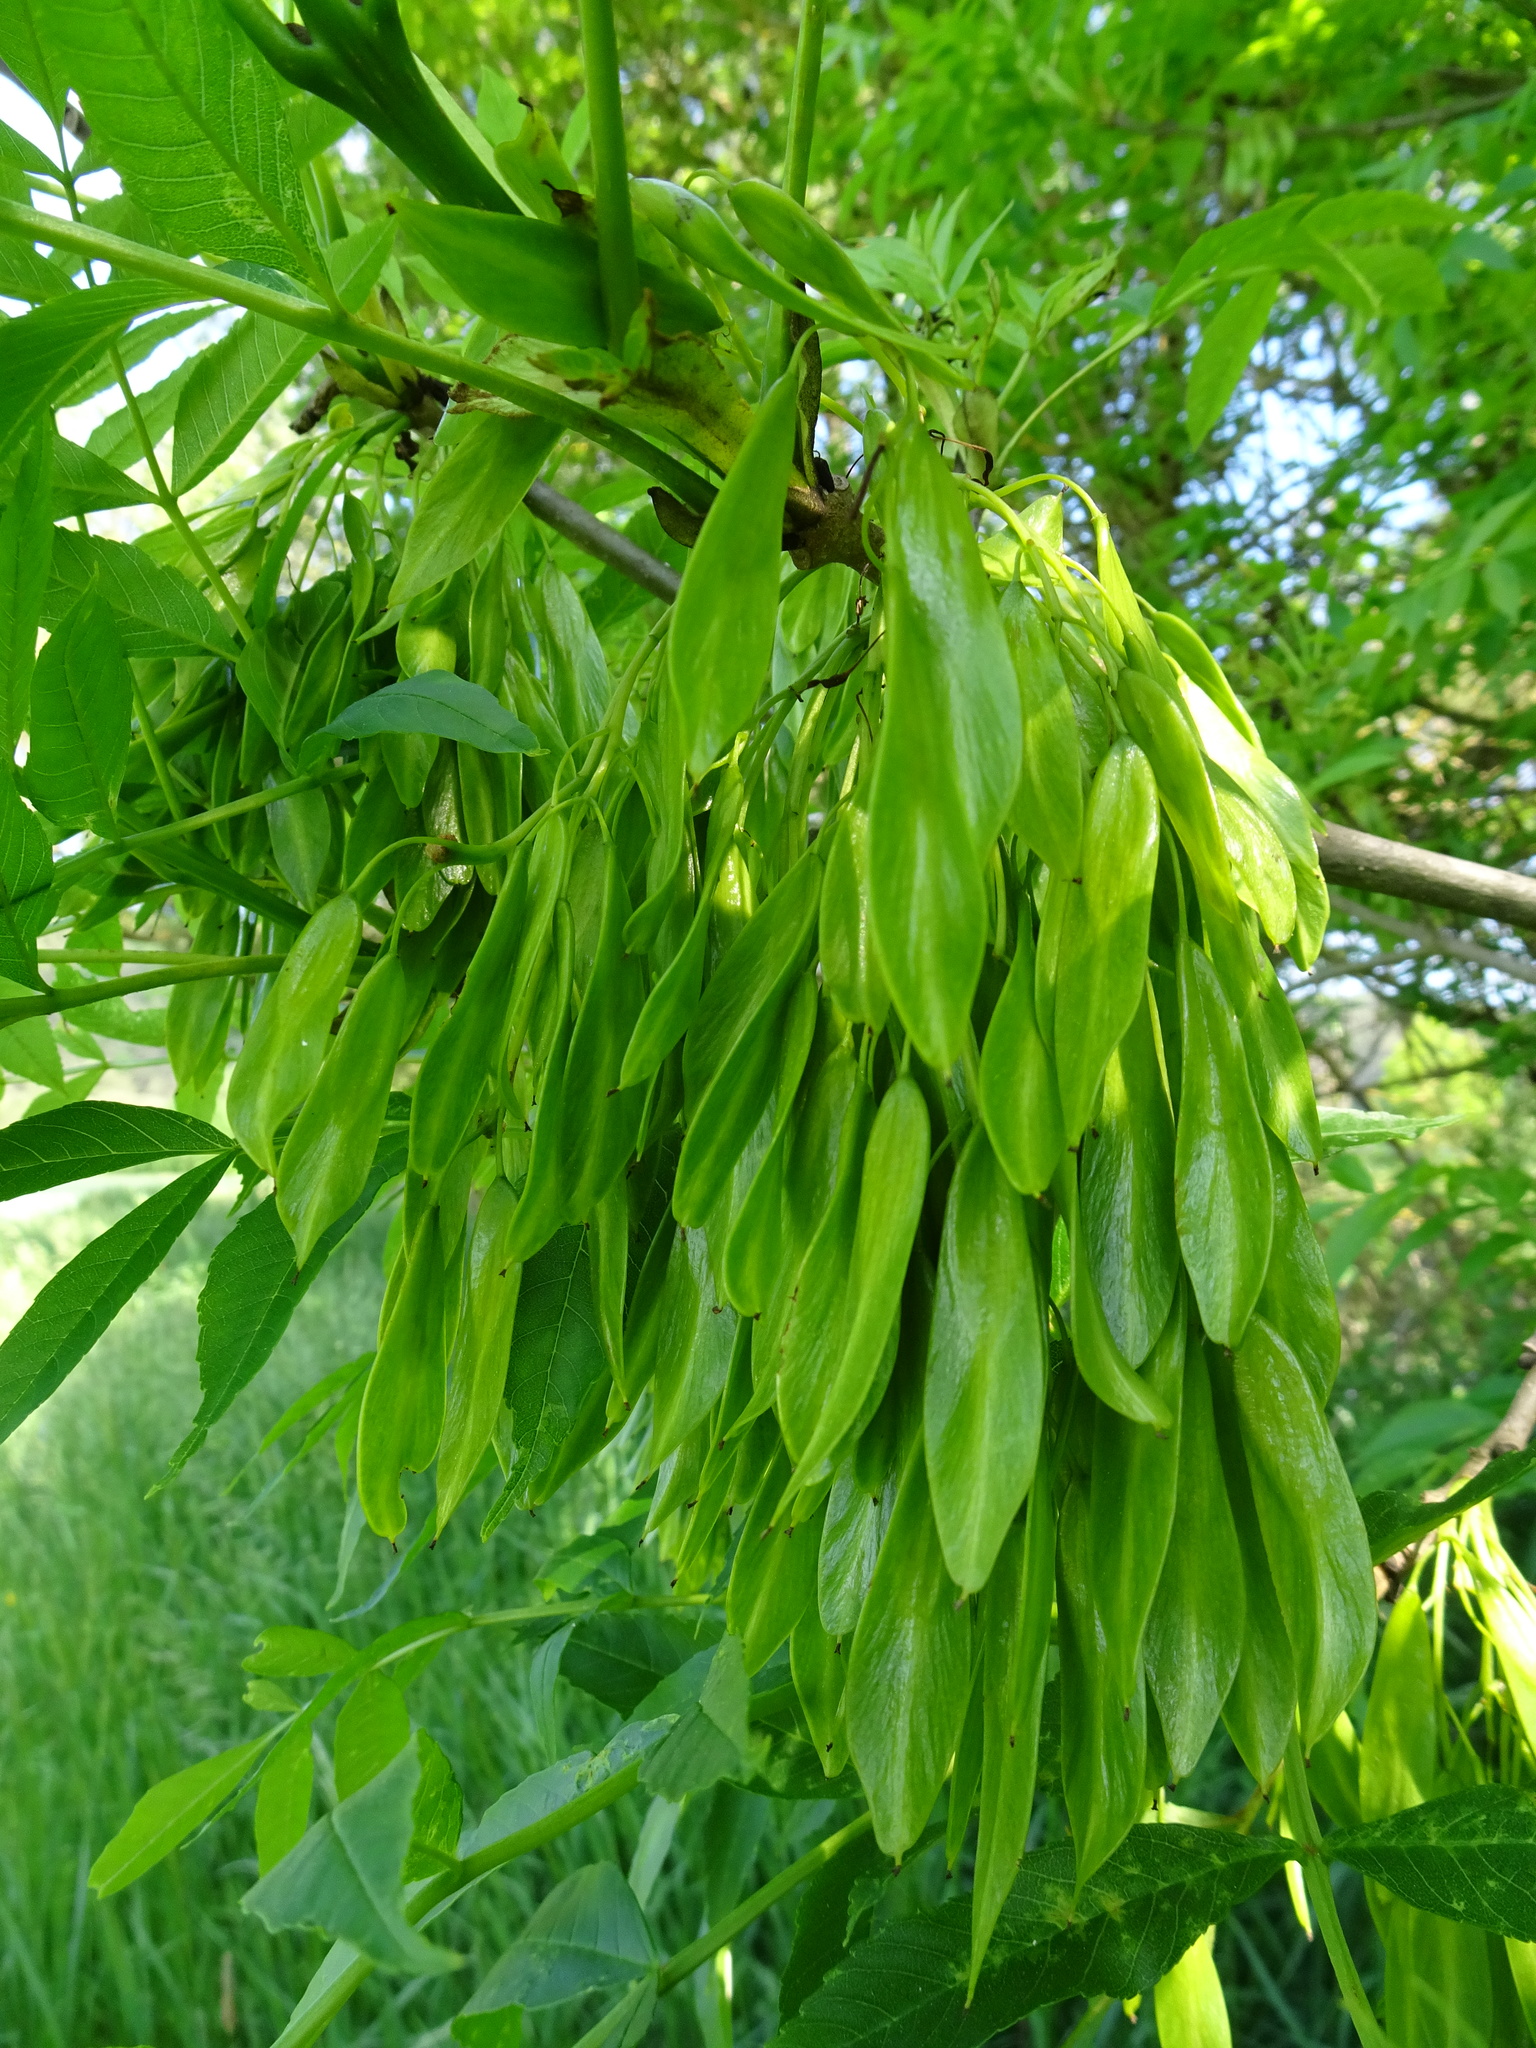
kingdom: Plantae
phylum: Tracheophyta
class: Magnoliopsida
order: Lamiales
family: Oleaceae
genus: Fraxinus
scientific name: Fraxinus excelsior
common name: European ash
